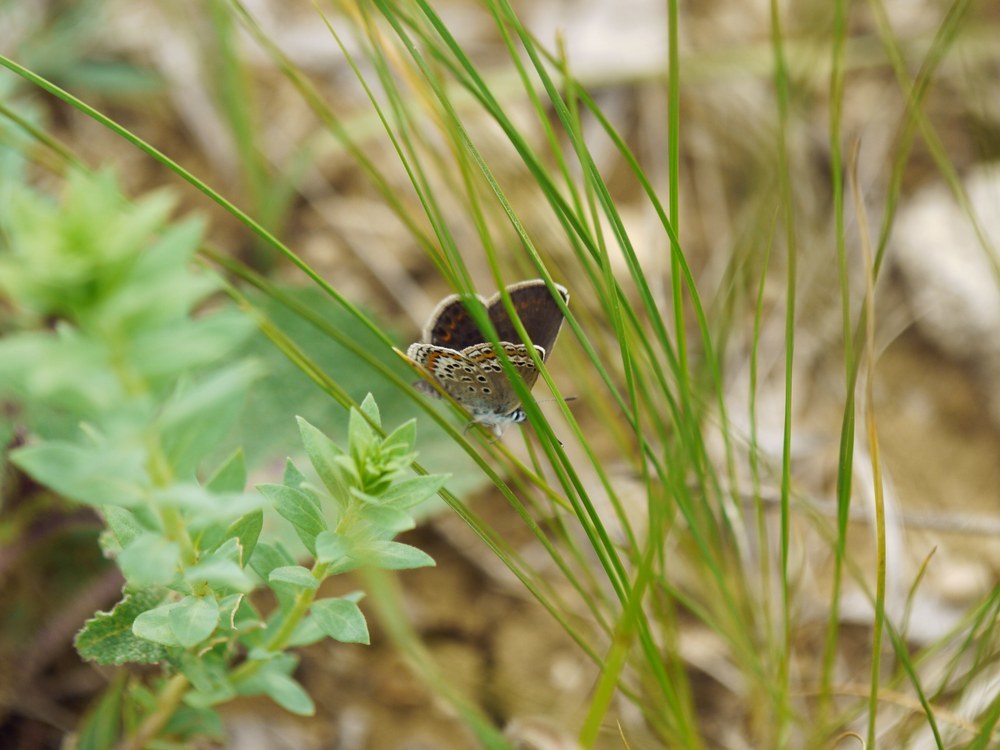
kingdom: Animalia
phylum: Arthropoda
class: Insecta
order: Lepidoptera
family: Lycaenidae
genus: Plebejus
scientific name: Plebejus argus
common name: Silver-studded blue
